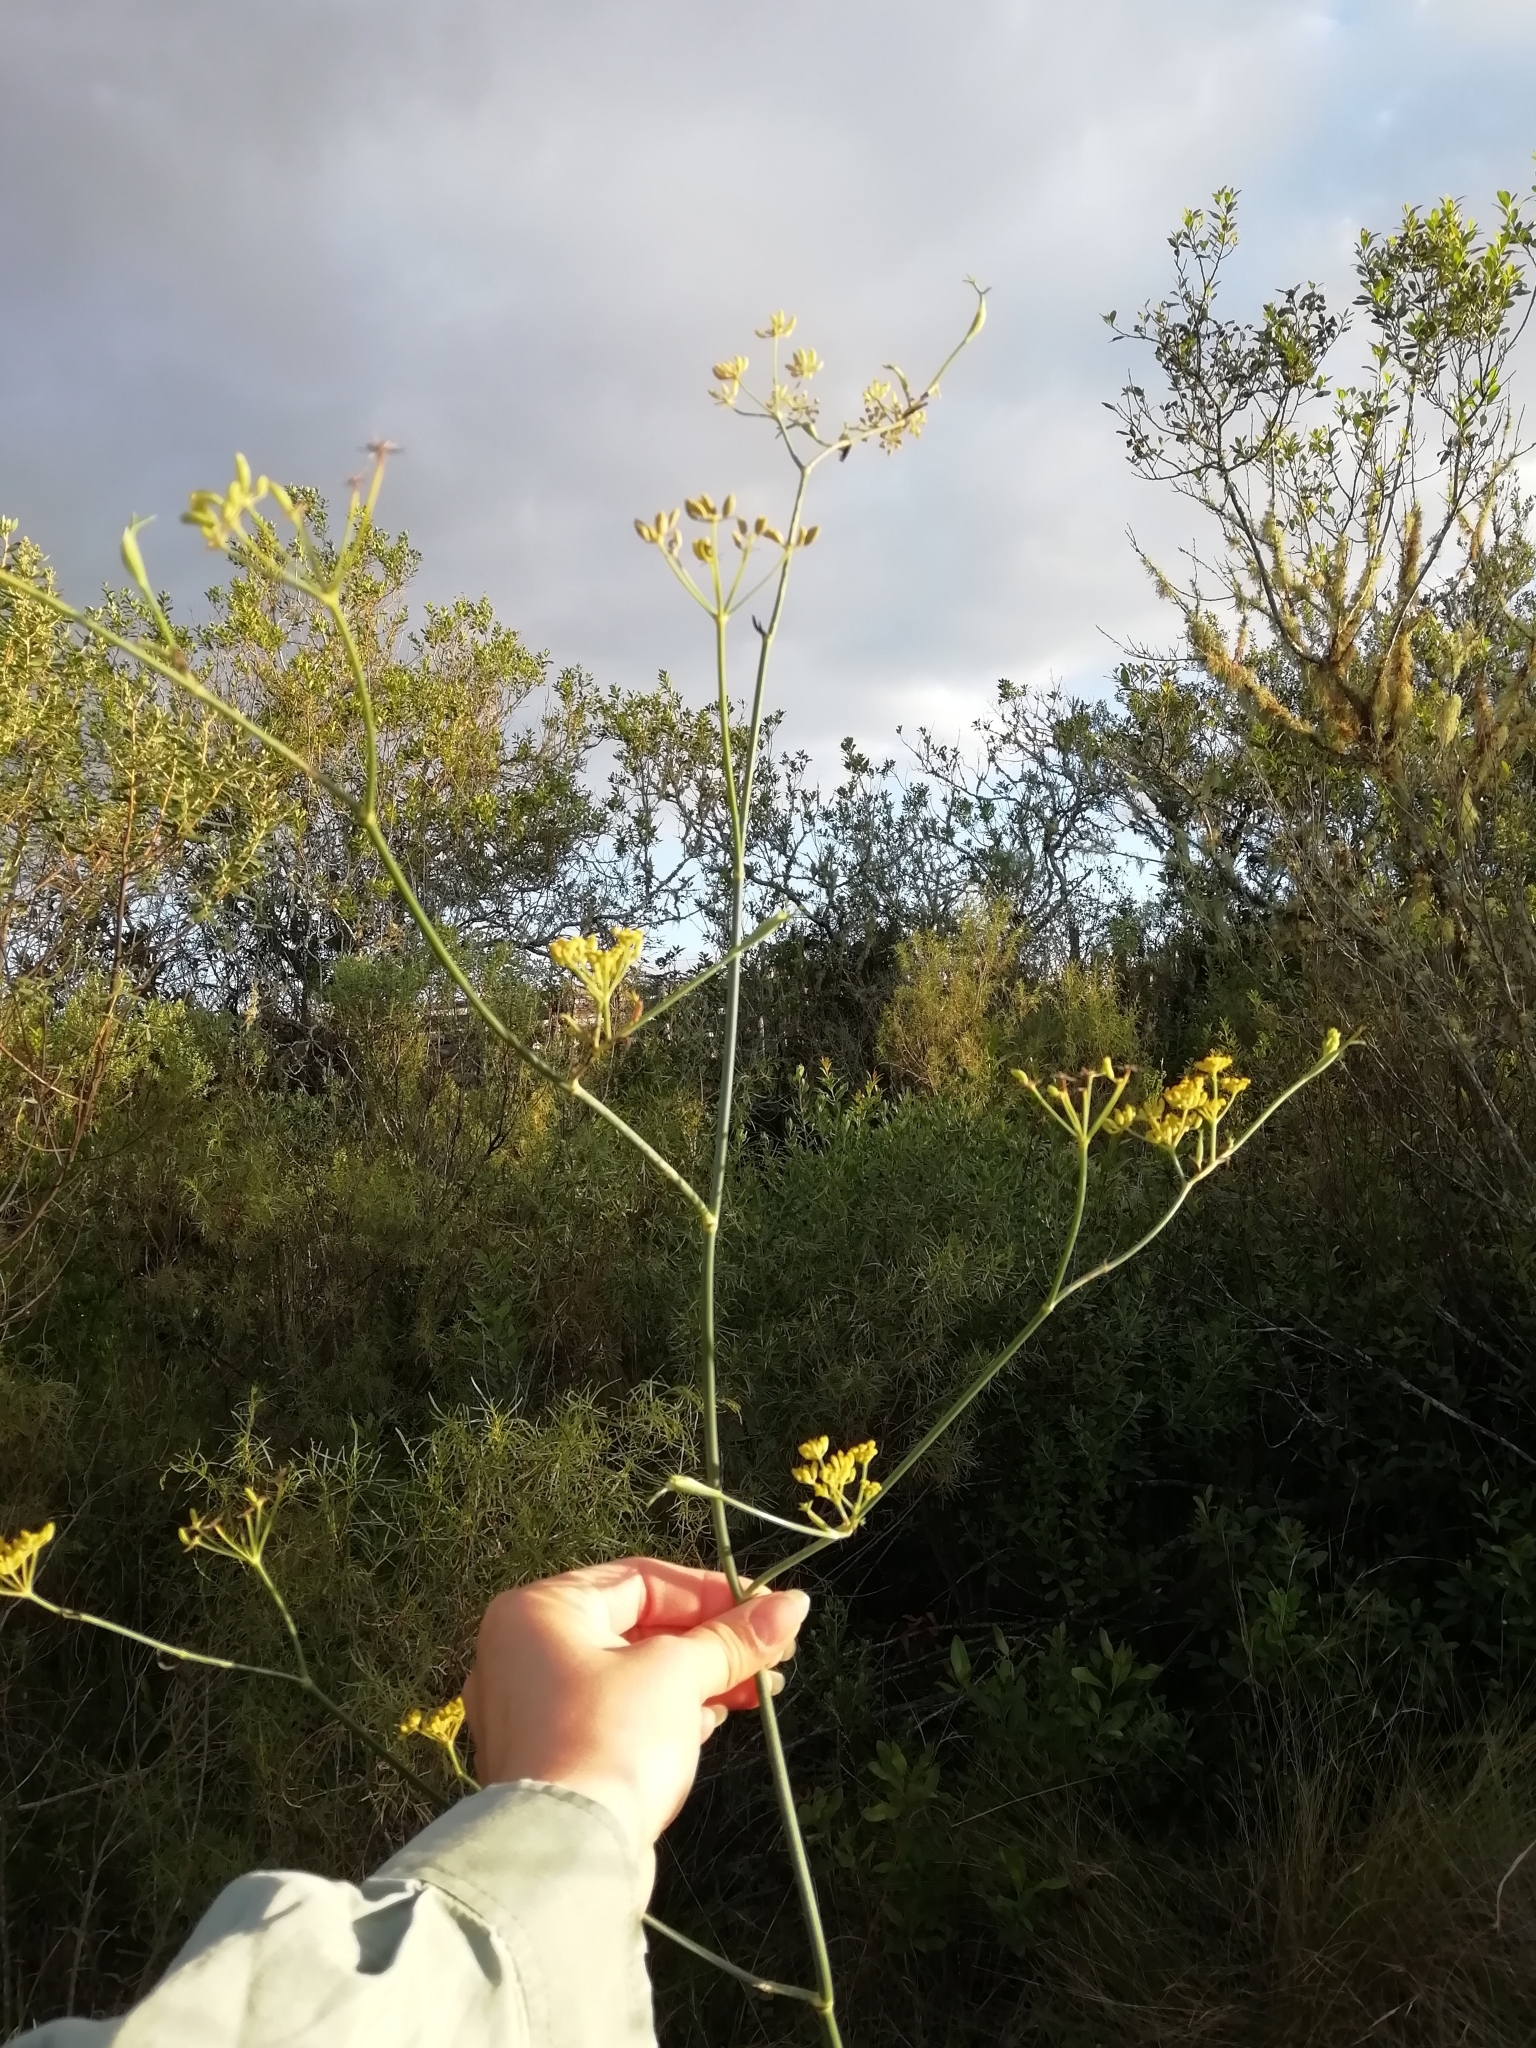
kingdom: Plantae
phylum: Tracheophyta
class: Magnoliopsida
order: Apiales
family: Apiaceae
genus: Foeniculum
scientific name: Foeniculum vulgare
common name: Fennel
